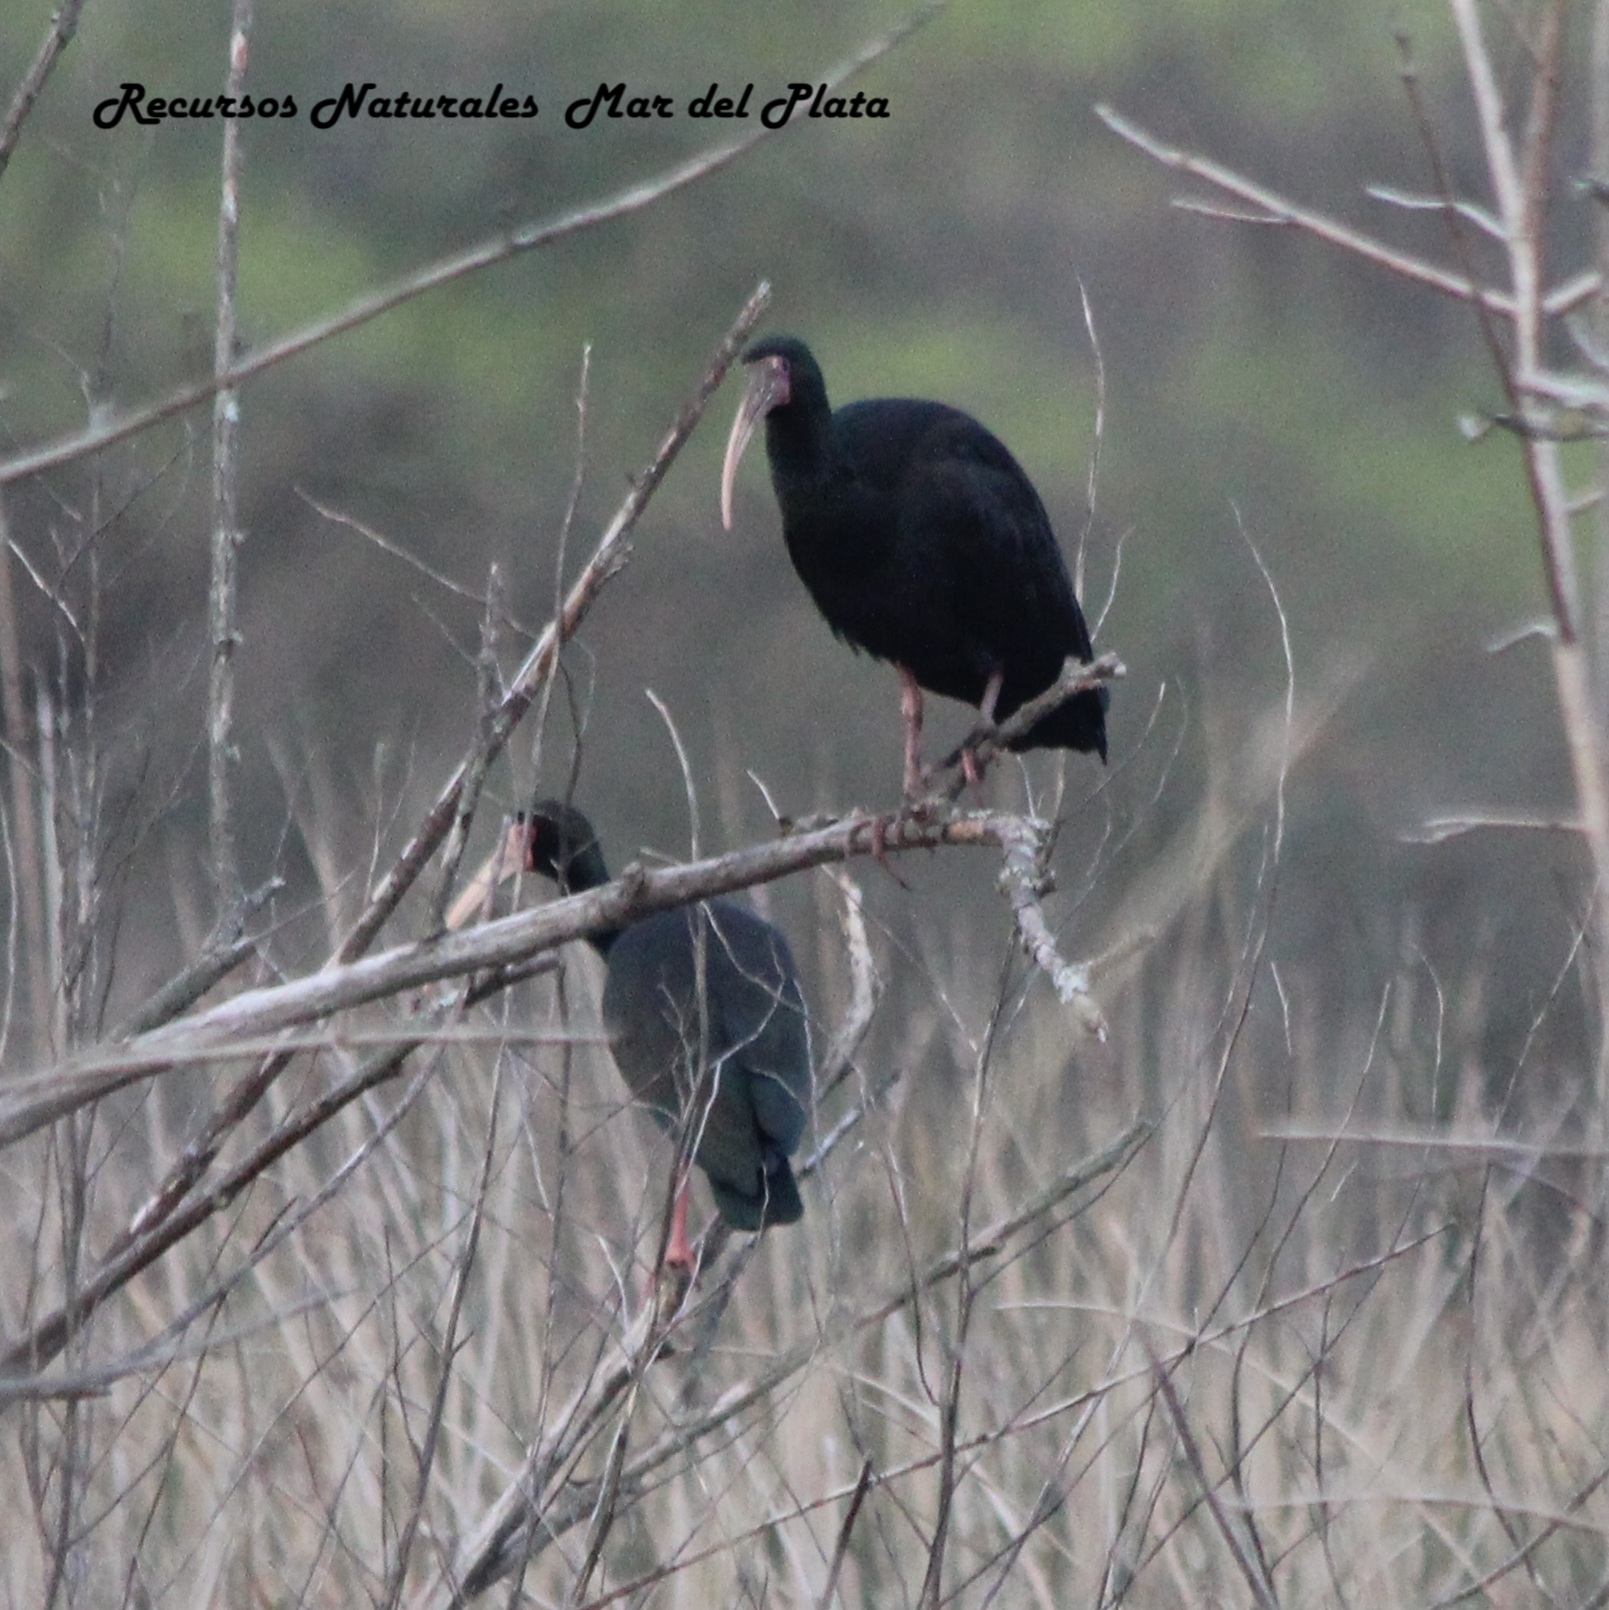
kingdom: Animalia
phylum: Chordata
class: Aves
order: Pelecaniformes
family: Threskiornithidae
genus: Phimosus
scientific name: Phimosus infuscatus
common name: Bare-faced ibis
